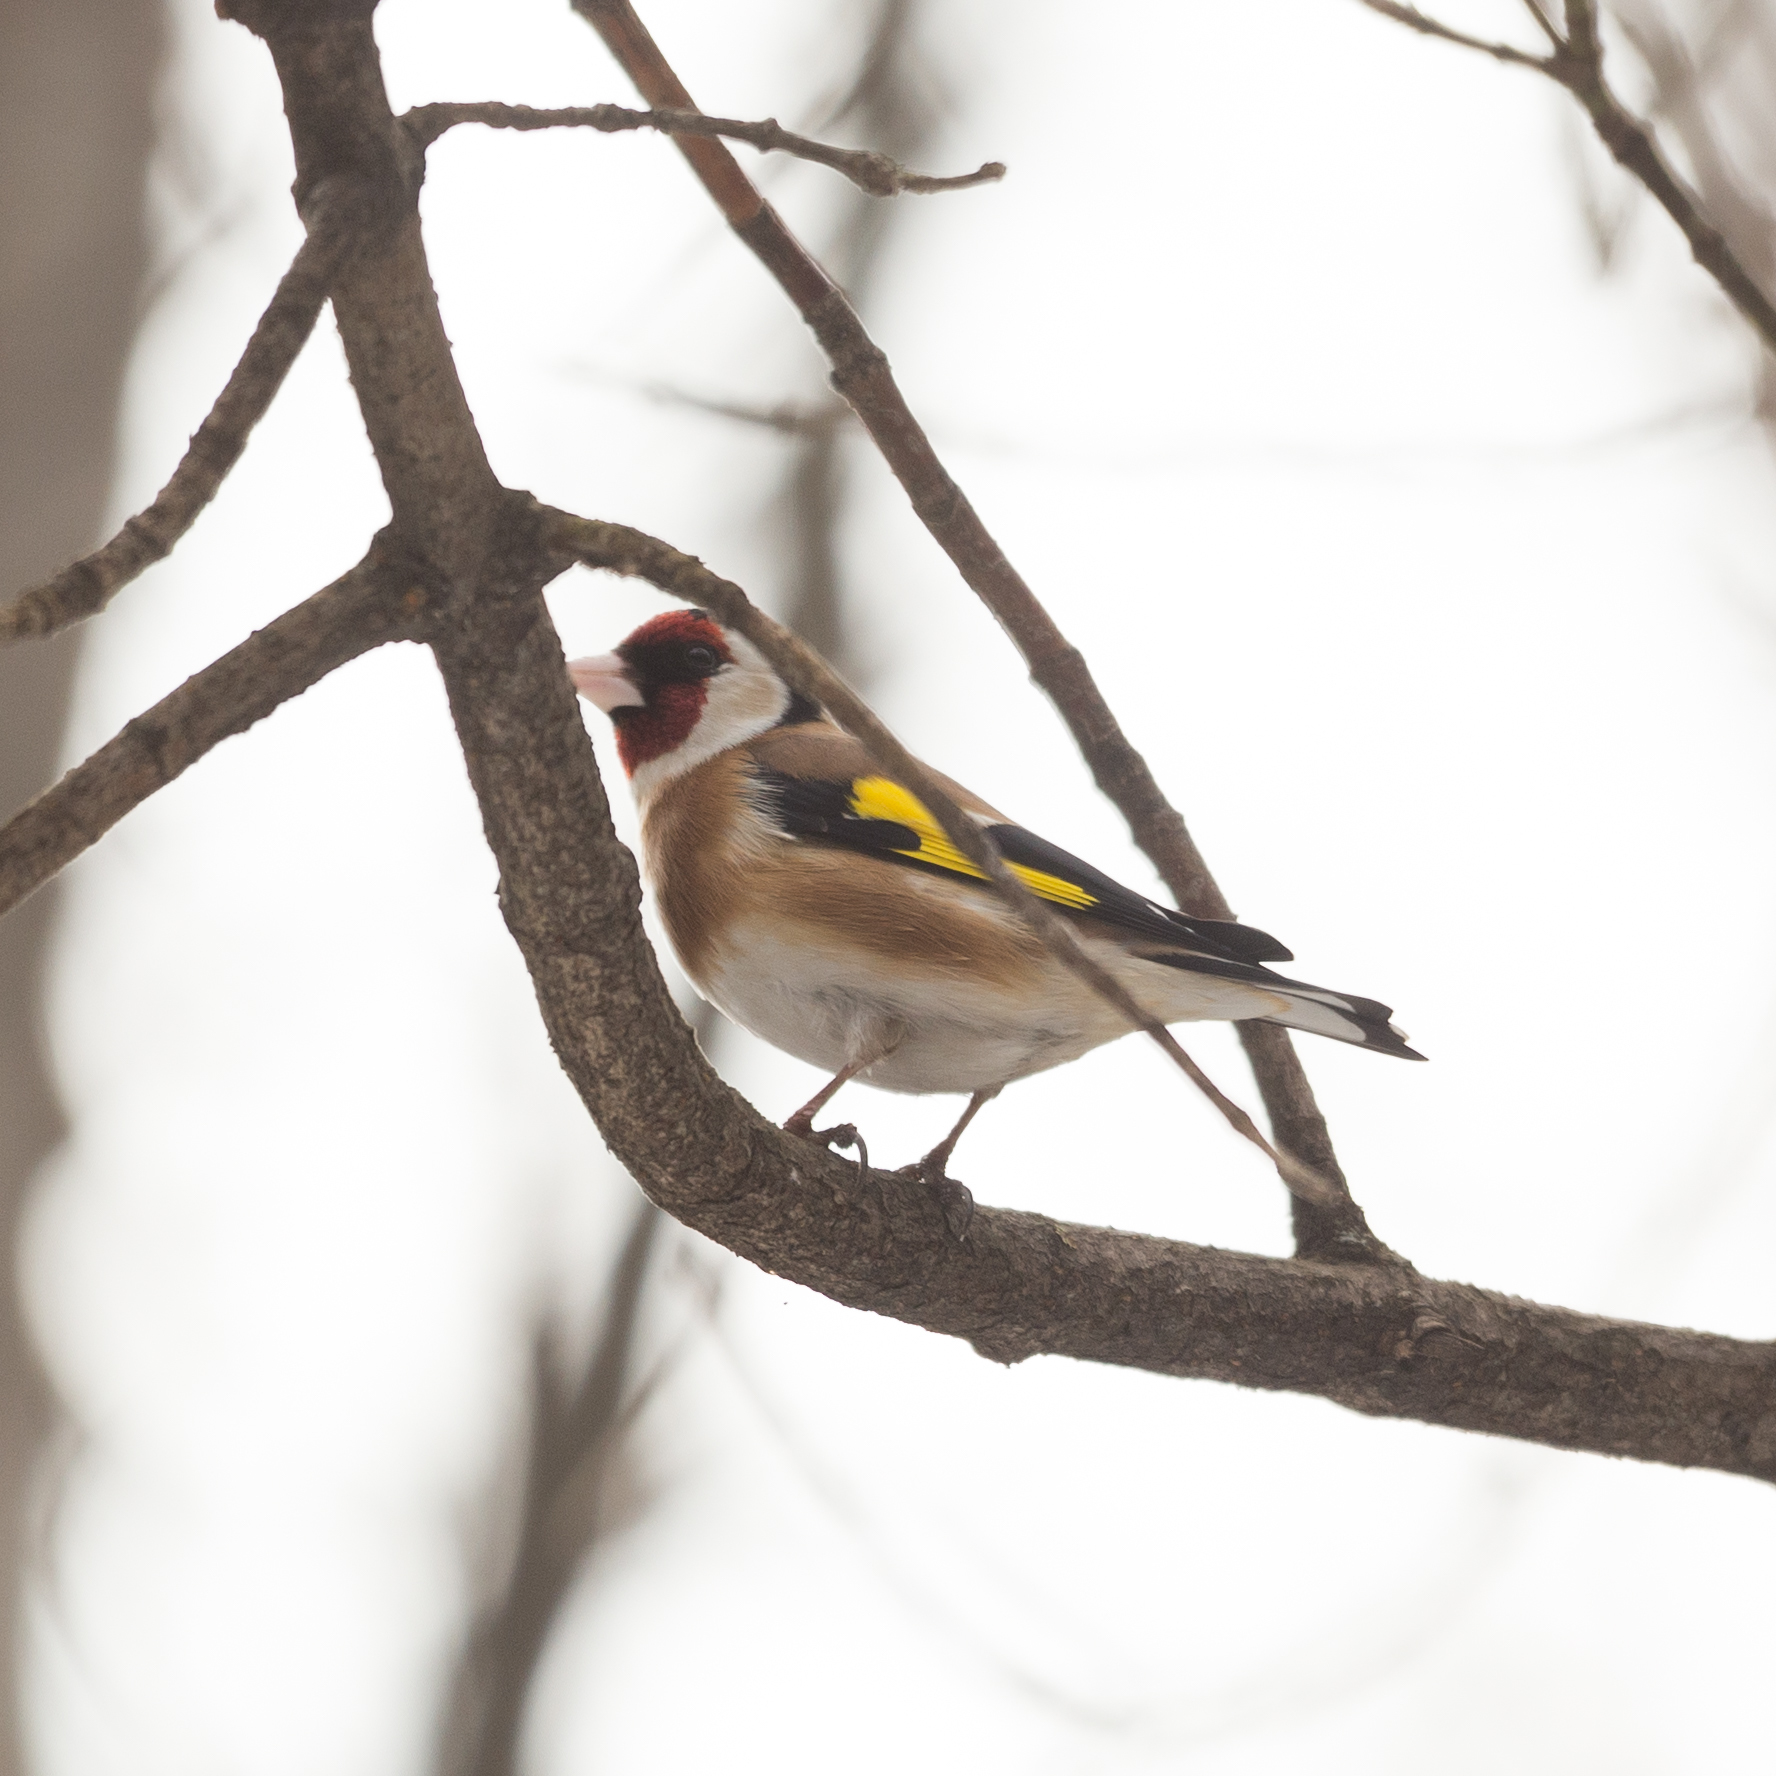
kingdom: Animalia
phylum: Chordata
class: Aves
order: Passeriformes
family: Fringillidae
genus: Carduelis
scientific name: Carduelis carduelis
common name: European goldfinch
